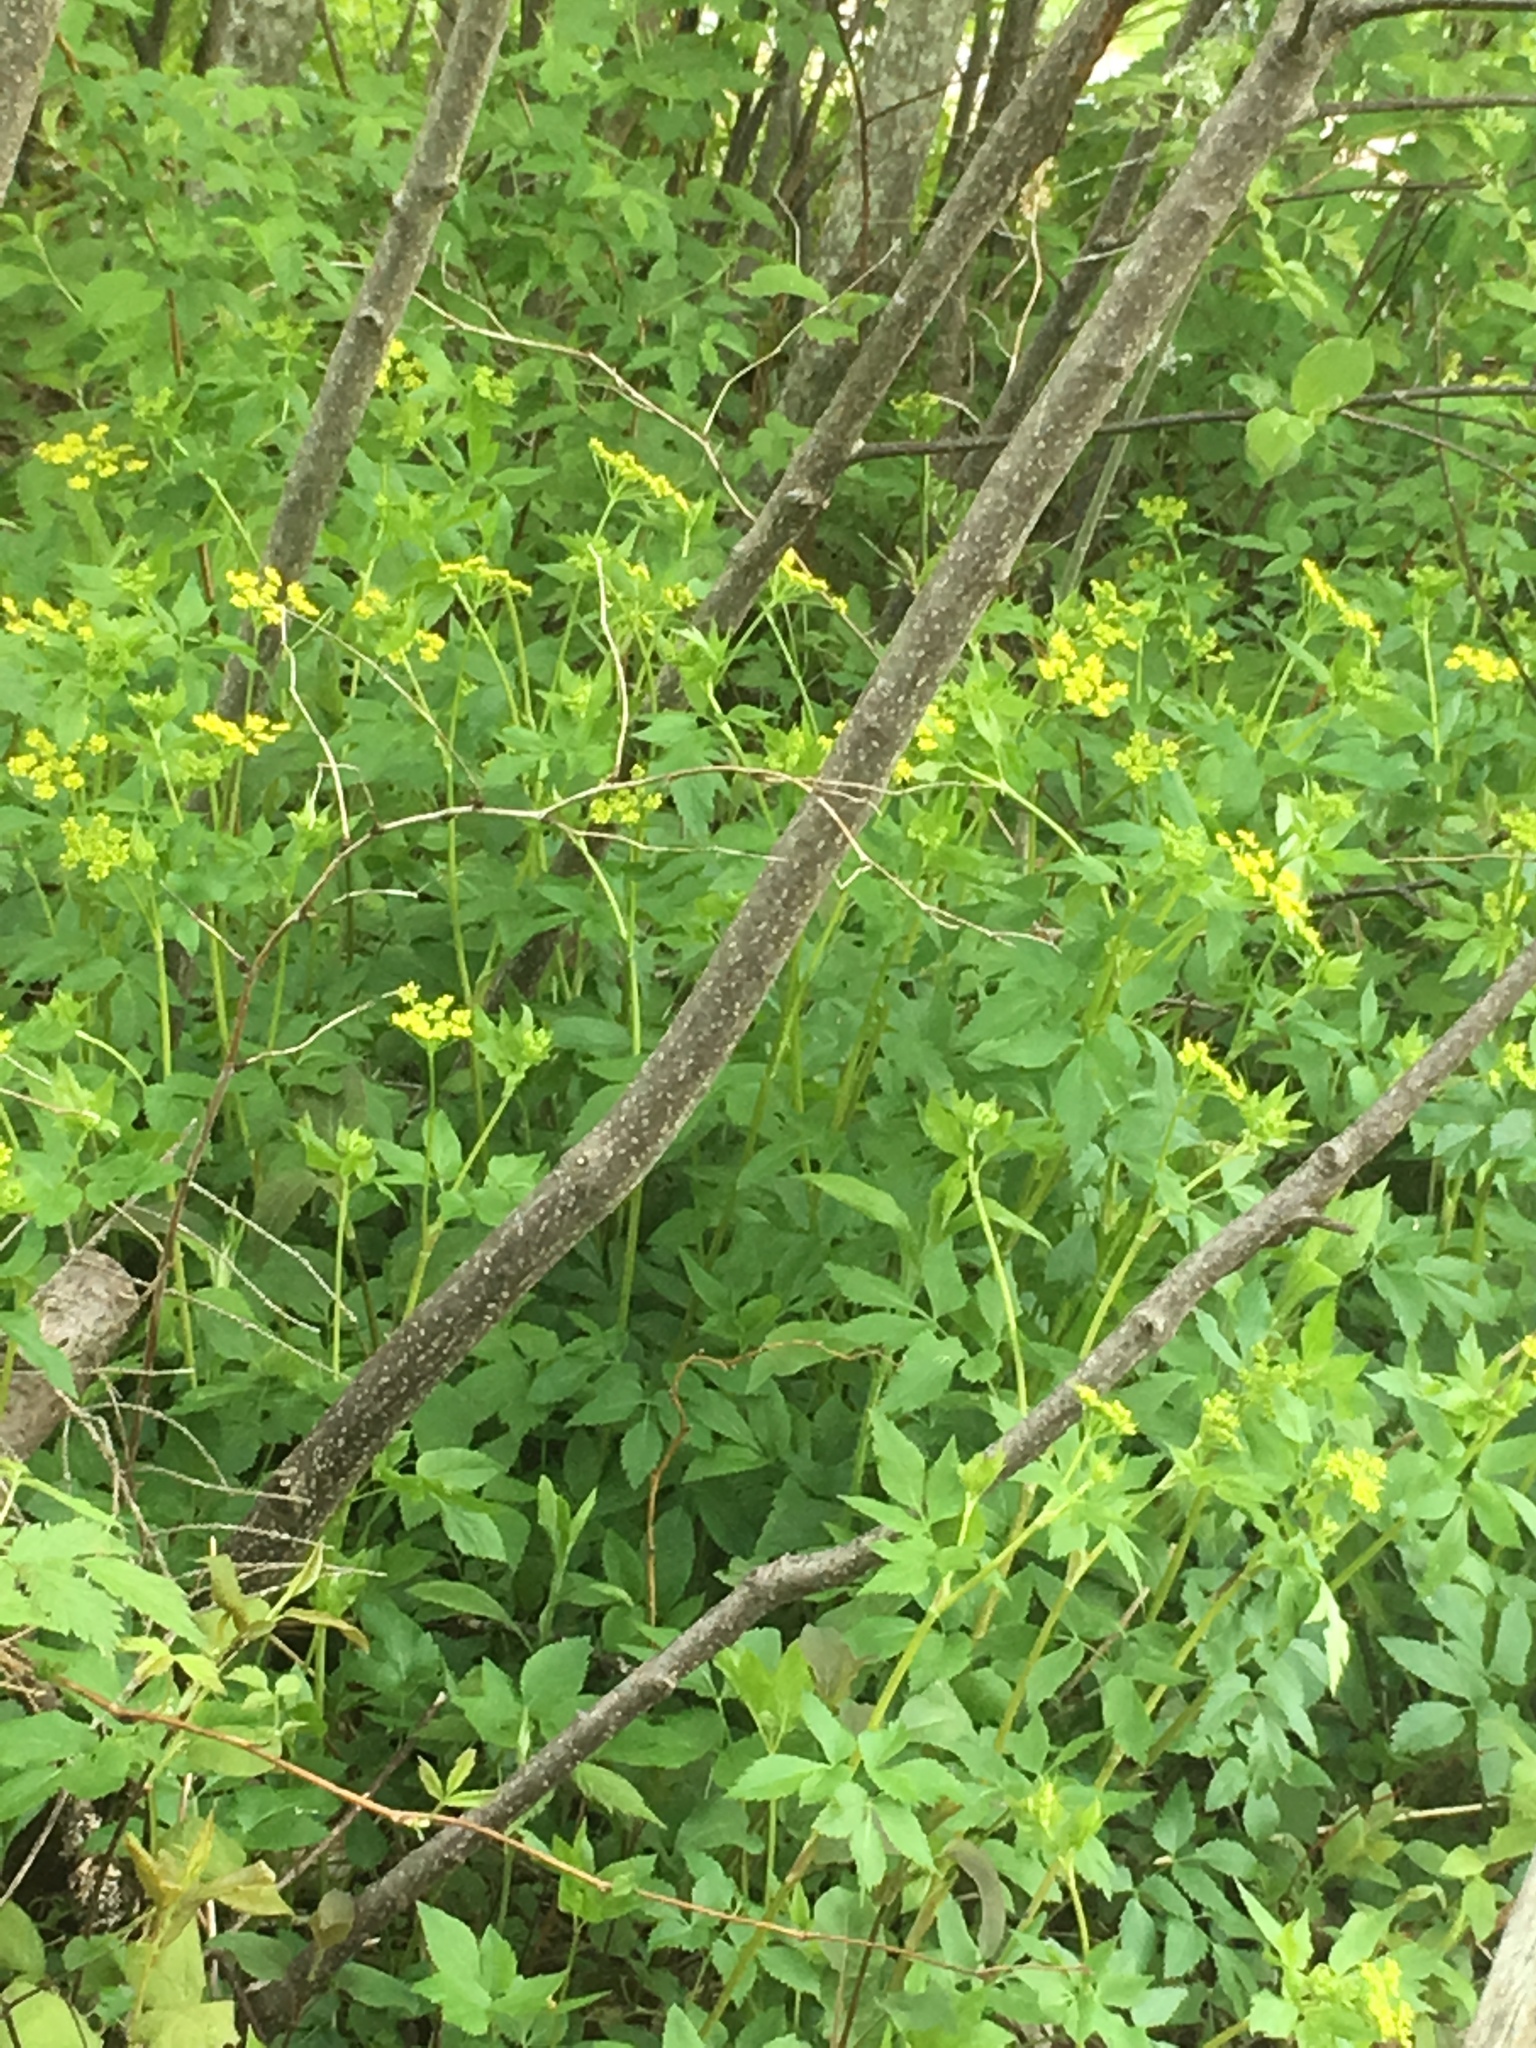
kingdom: Plantae
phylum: Tracheophyta
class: Magnoliopsida
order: Apiales
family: Apiaceae
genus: Zizia
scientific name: Zizia aurea
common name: Golden alexanders
